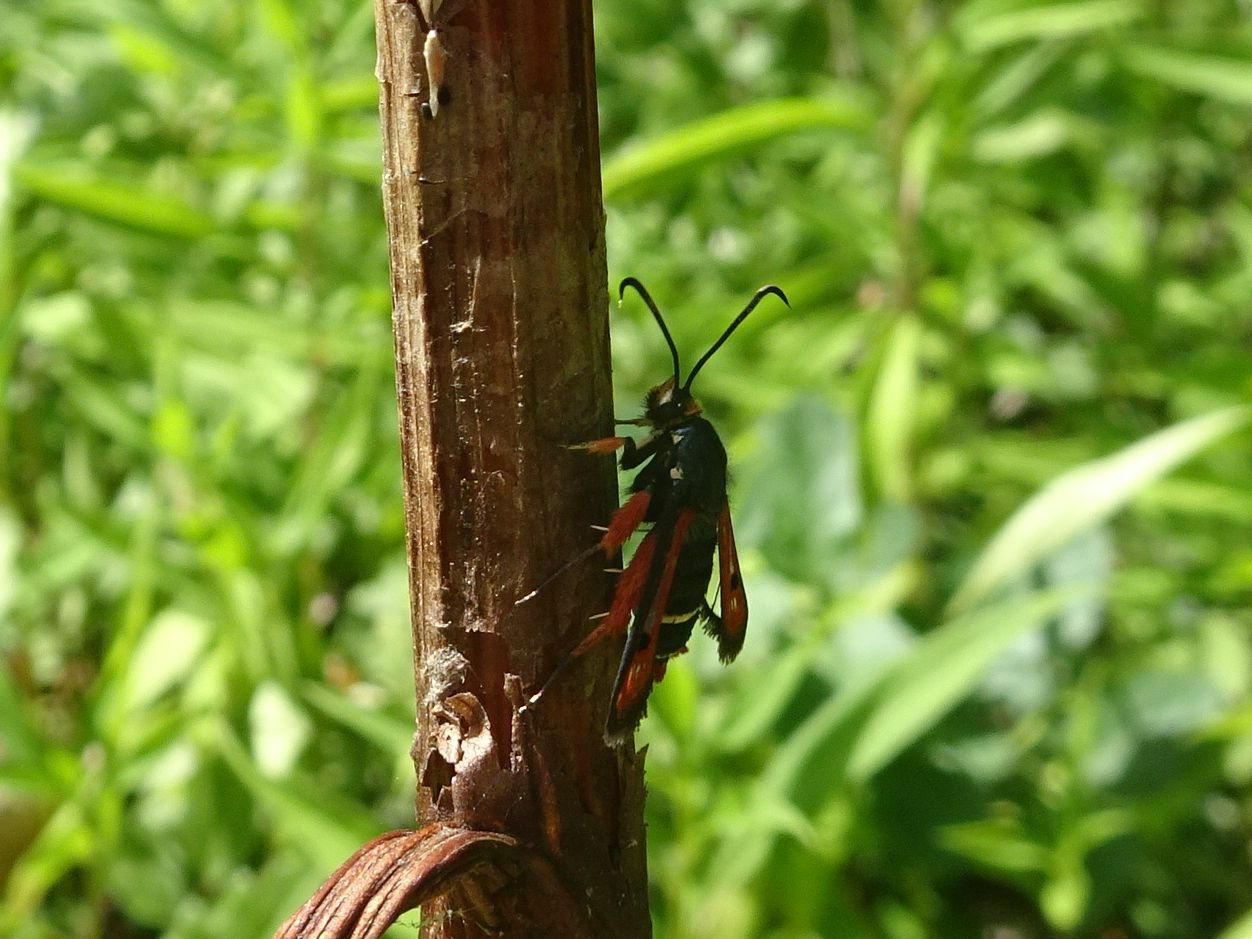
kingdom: Animalia
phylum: Arthropoda
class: Insecta
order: Lepidoptera
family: Sesiidae
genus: Pyropteron
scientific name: Pyropteron chrysidiforme
